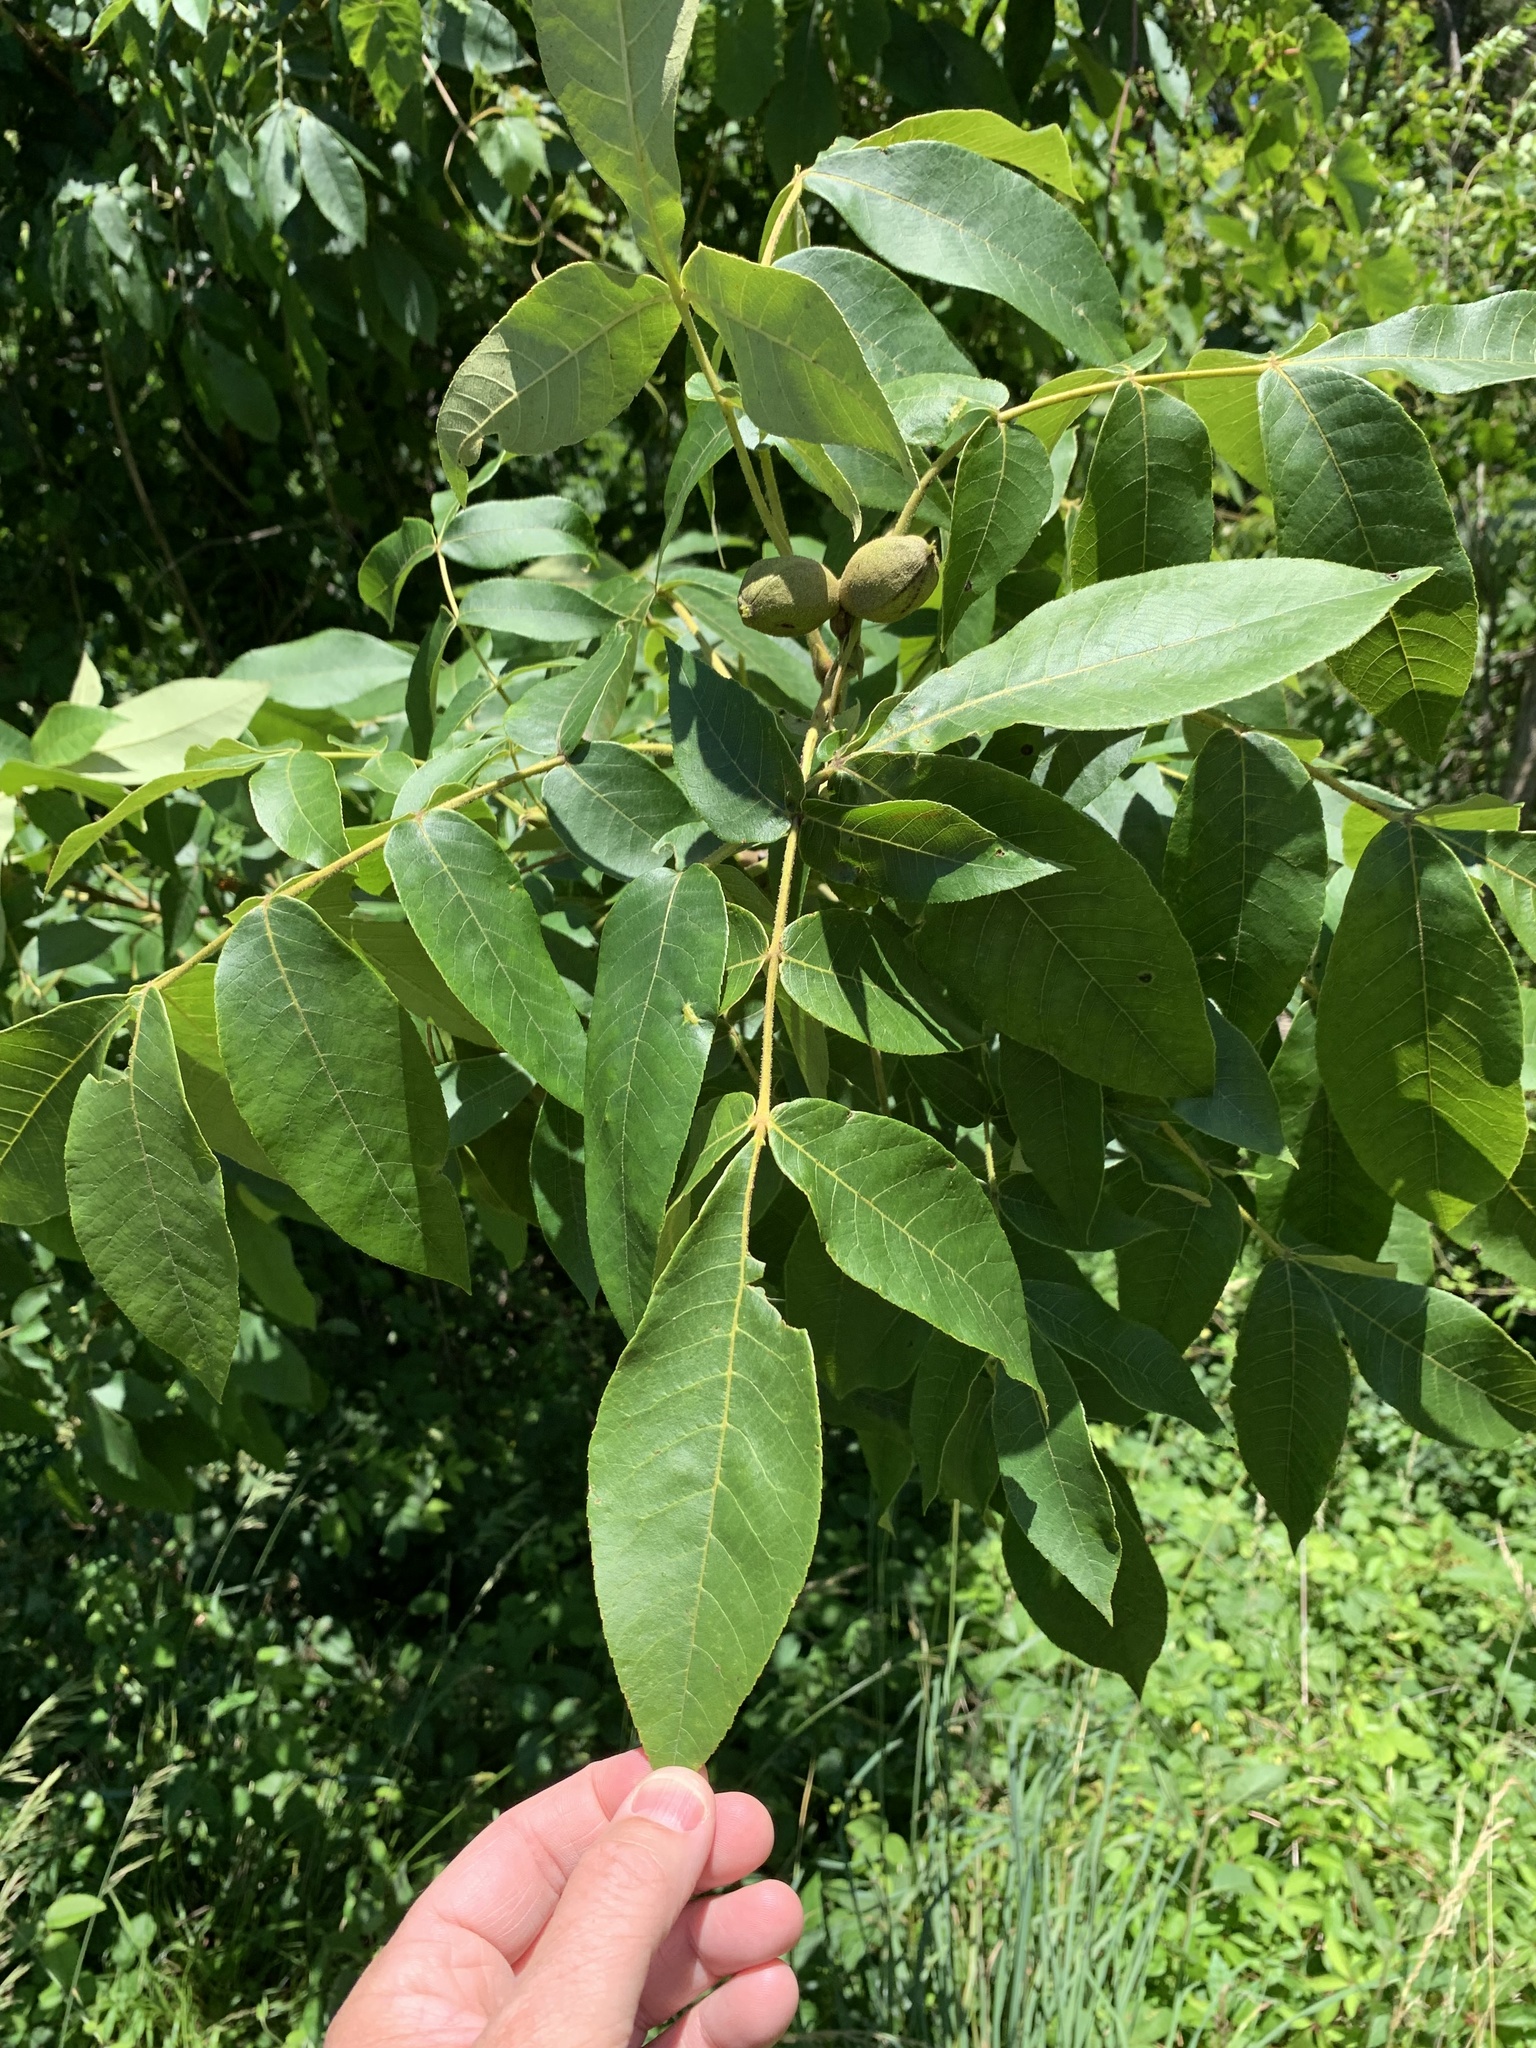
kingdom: Plantae
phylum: Tracheophyta
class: Magnoliopsida
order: Fagales
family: Juglandaceae
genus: Carya
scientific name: Carya alba
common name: Mockernut hickory
